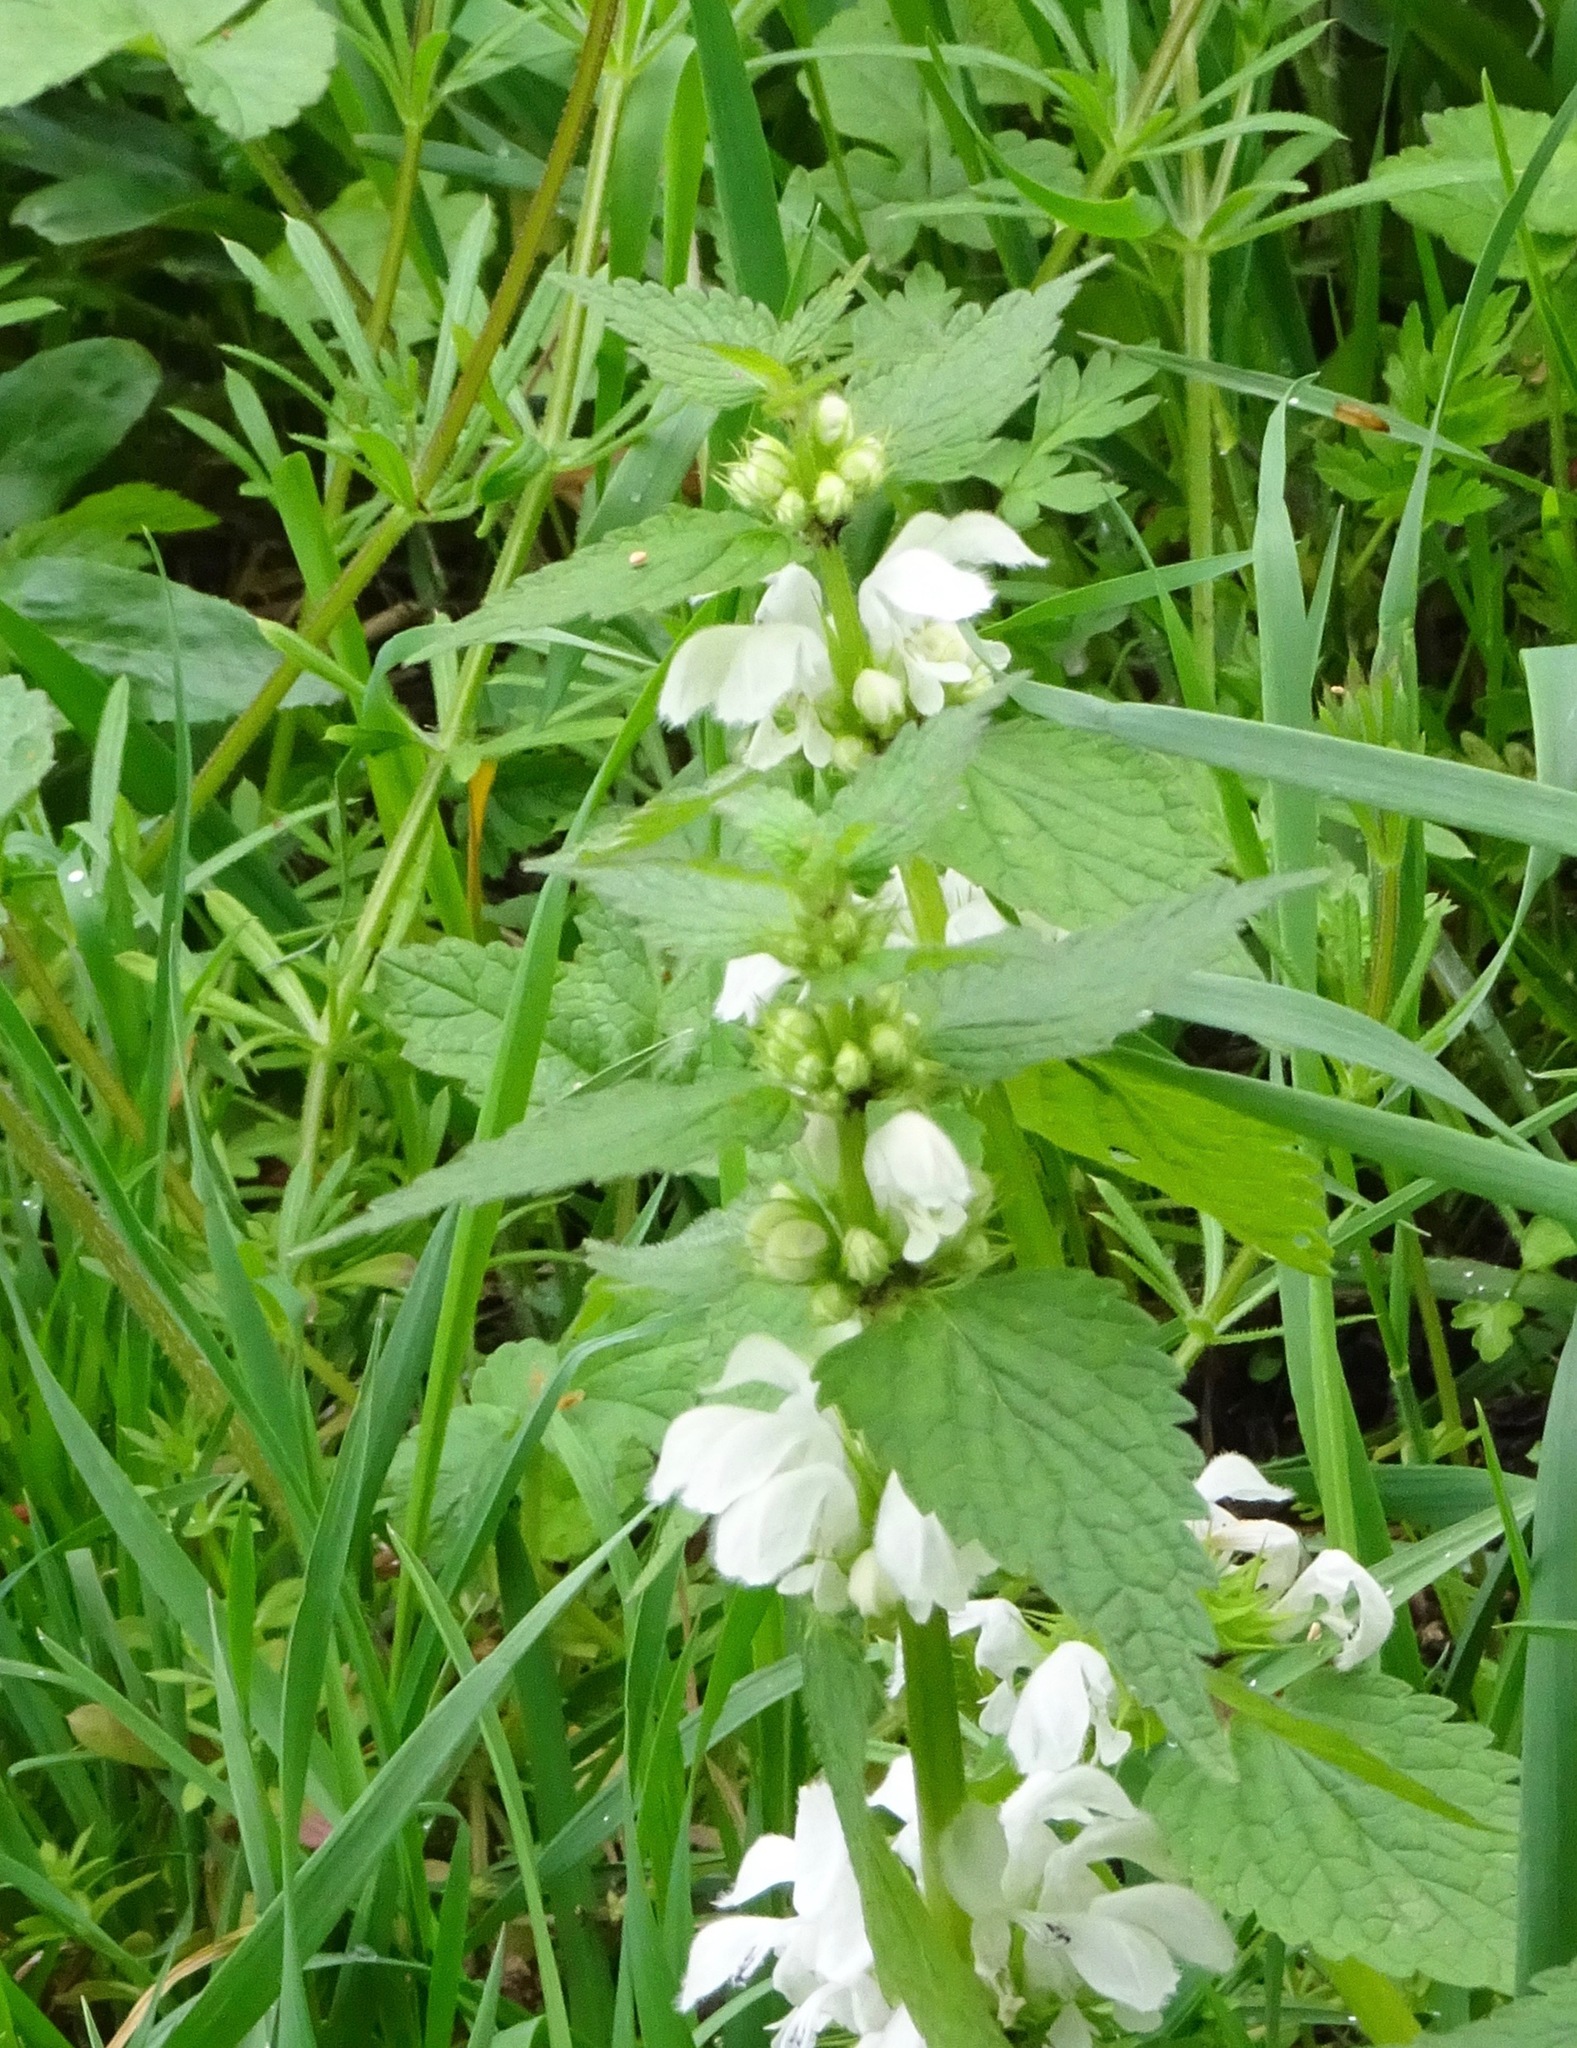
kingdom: Plantae
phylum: Tracheophyta
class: Magnoliopsida
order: Lamiales
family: Lamiaceae
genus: Lamium
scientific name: Lamium album
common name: White dead-nettle
